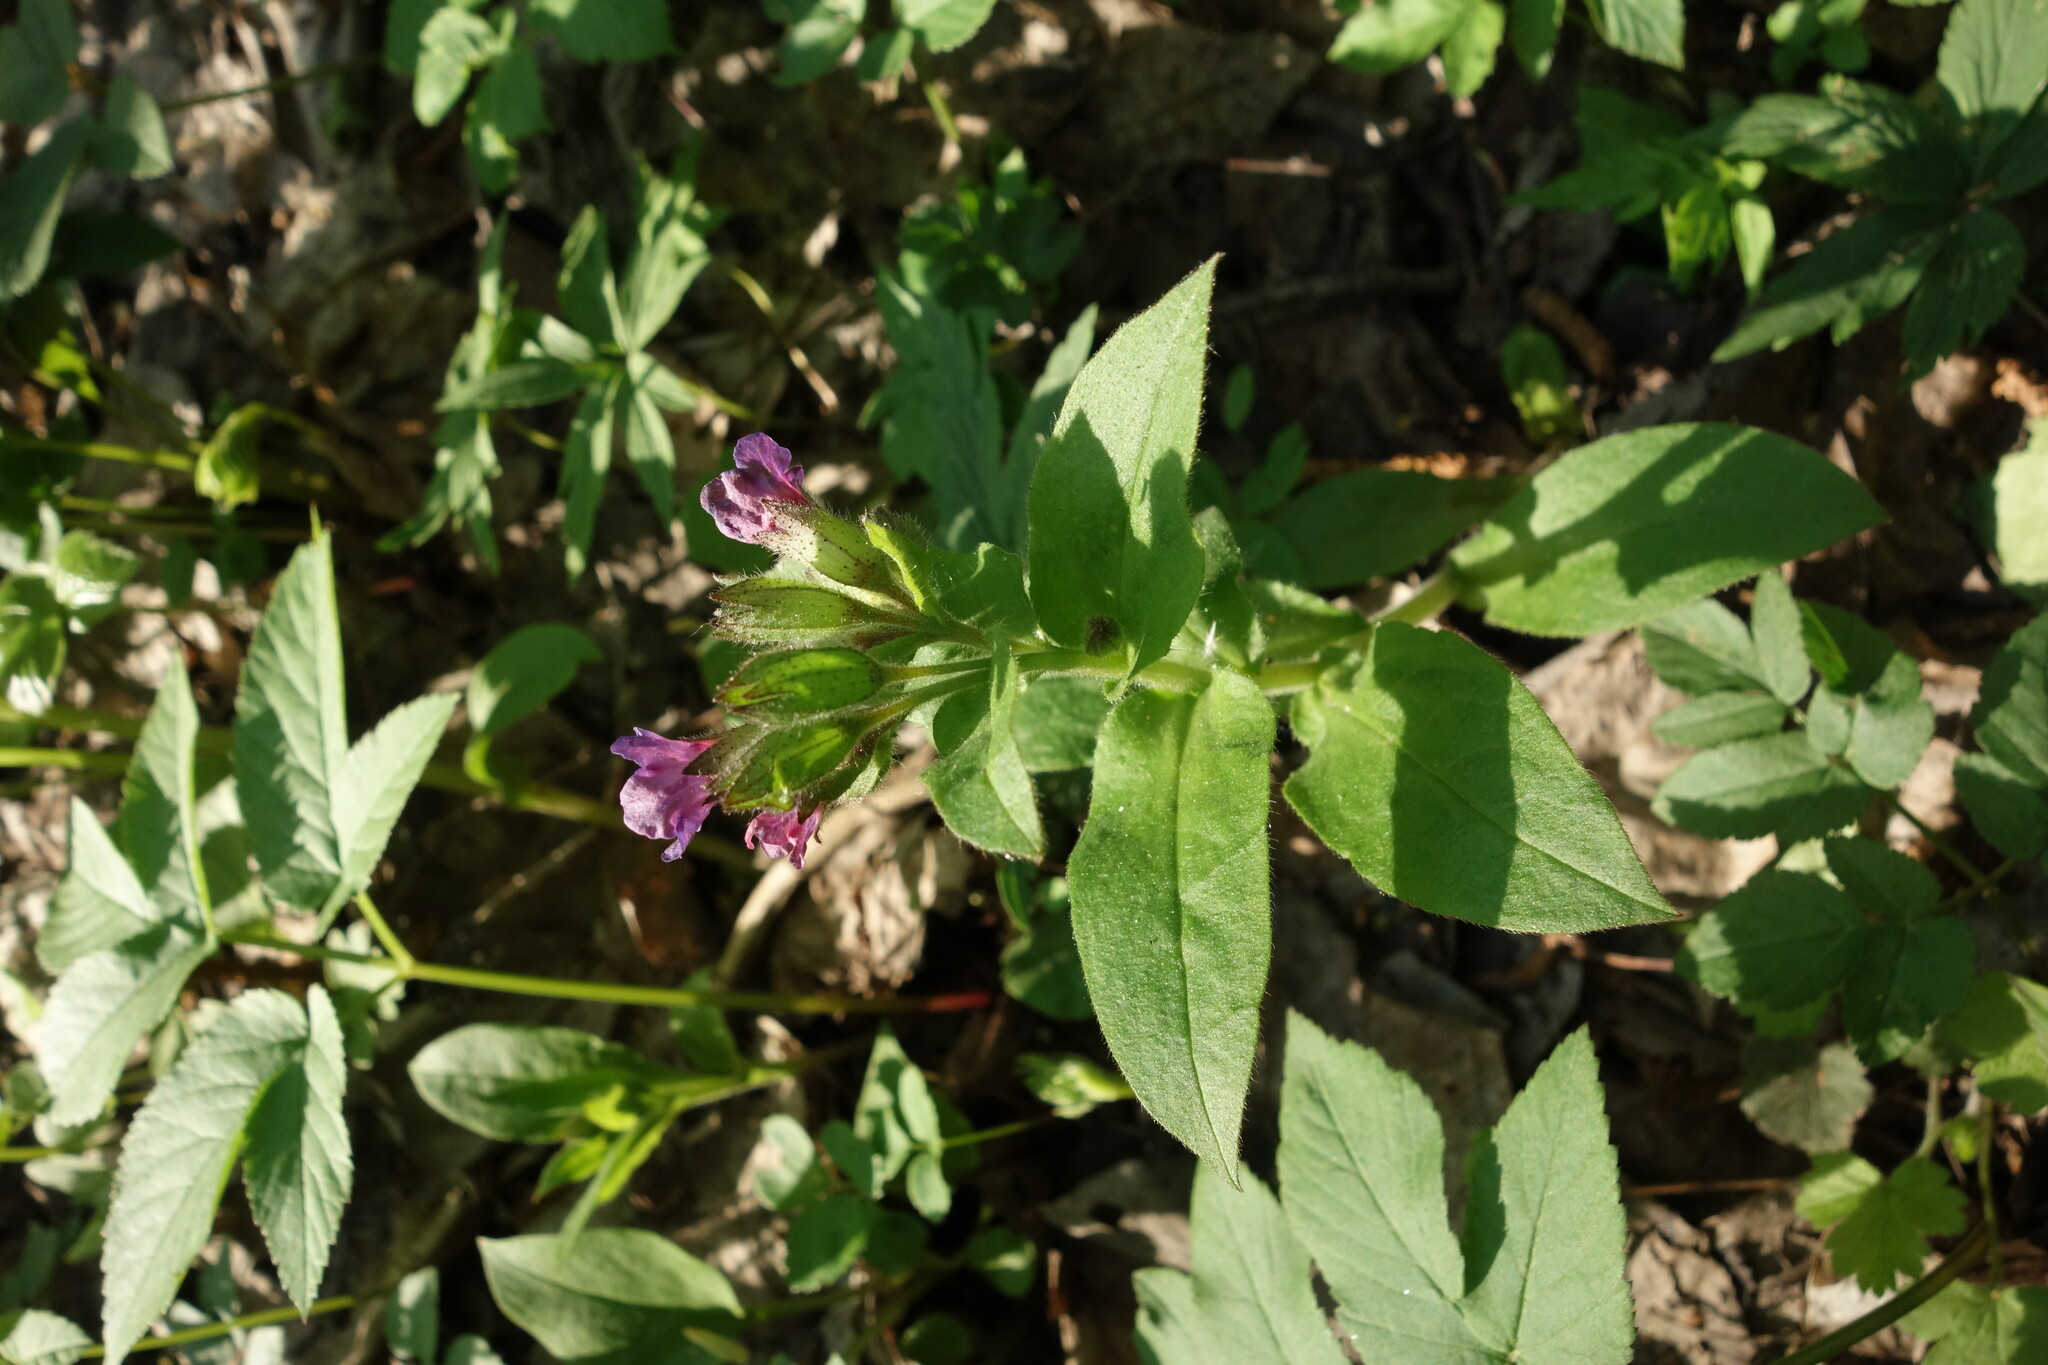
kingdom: Plantae
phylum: Tracheophyta
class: Magnoliopsida
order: Boraginales
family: Boraginaceae
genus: Pulmonaria
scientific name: Pulmonaria obscura
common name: Suffolk lungwort
